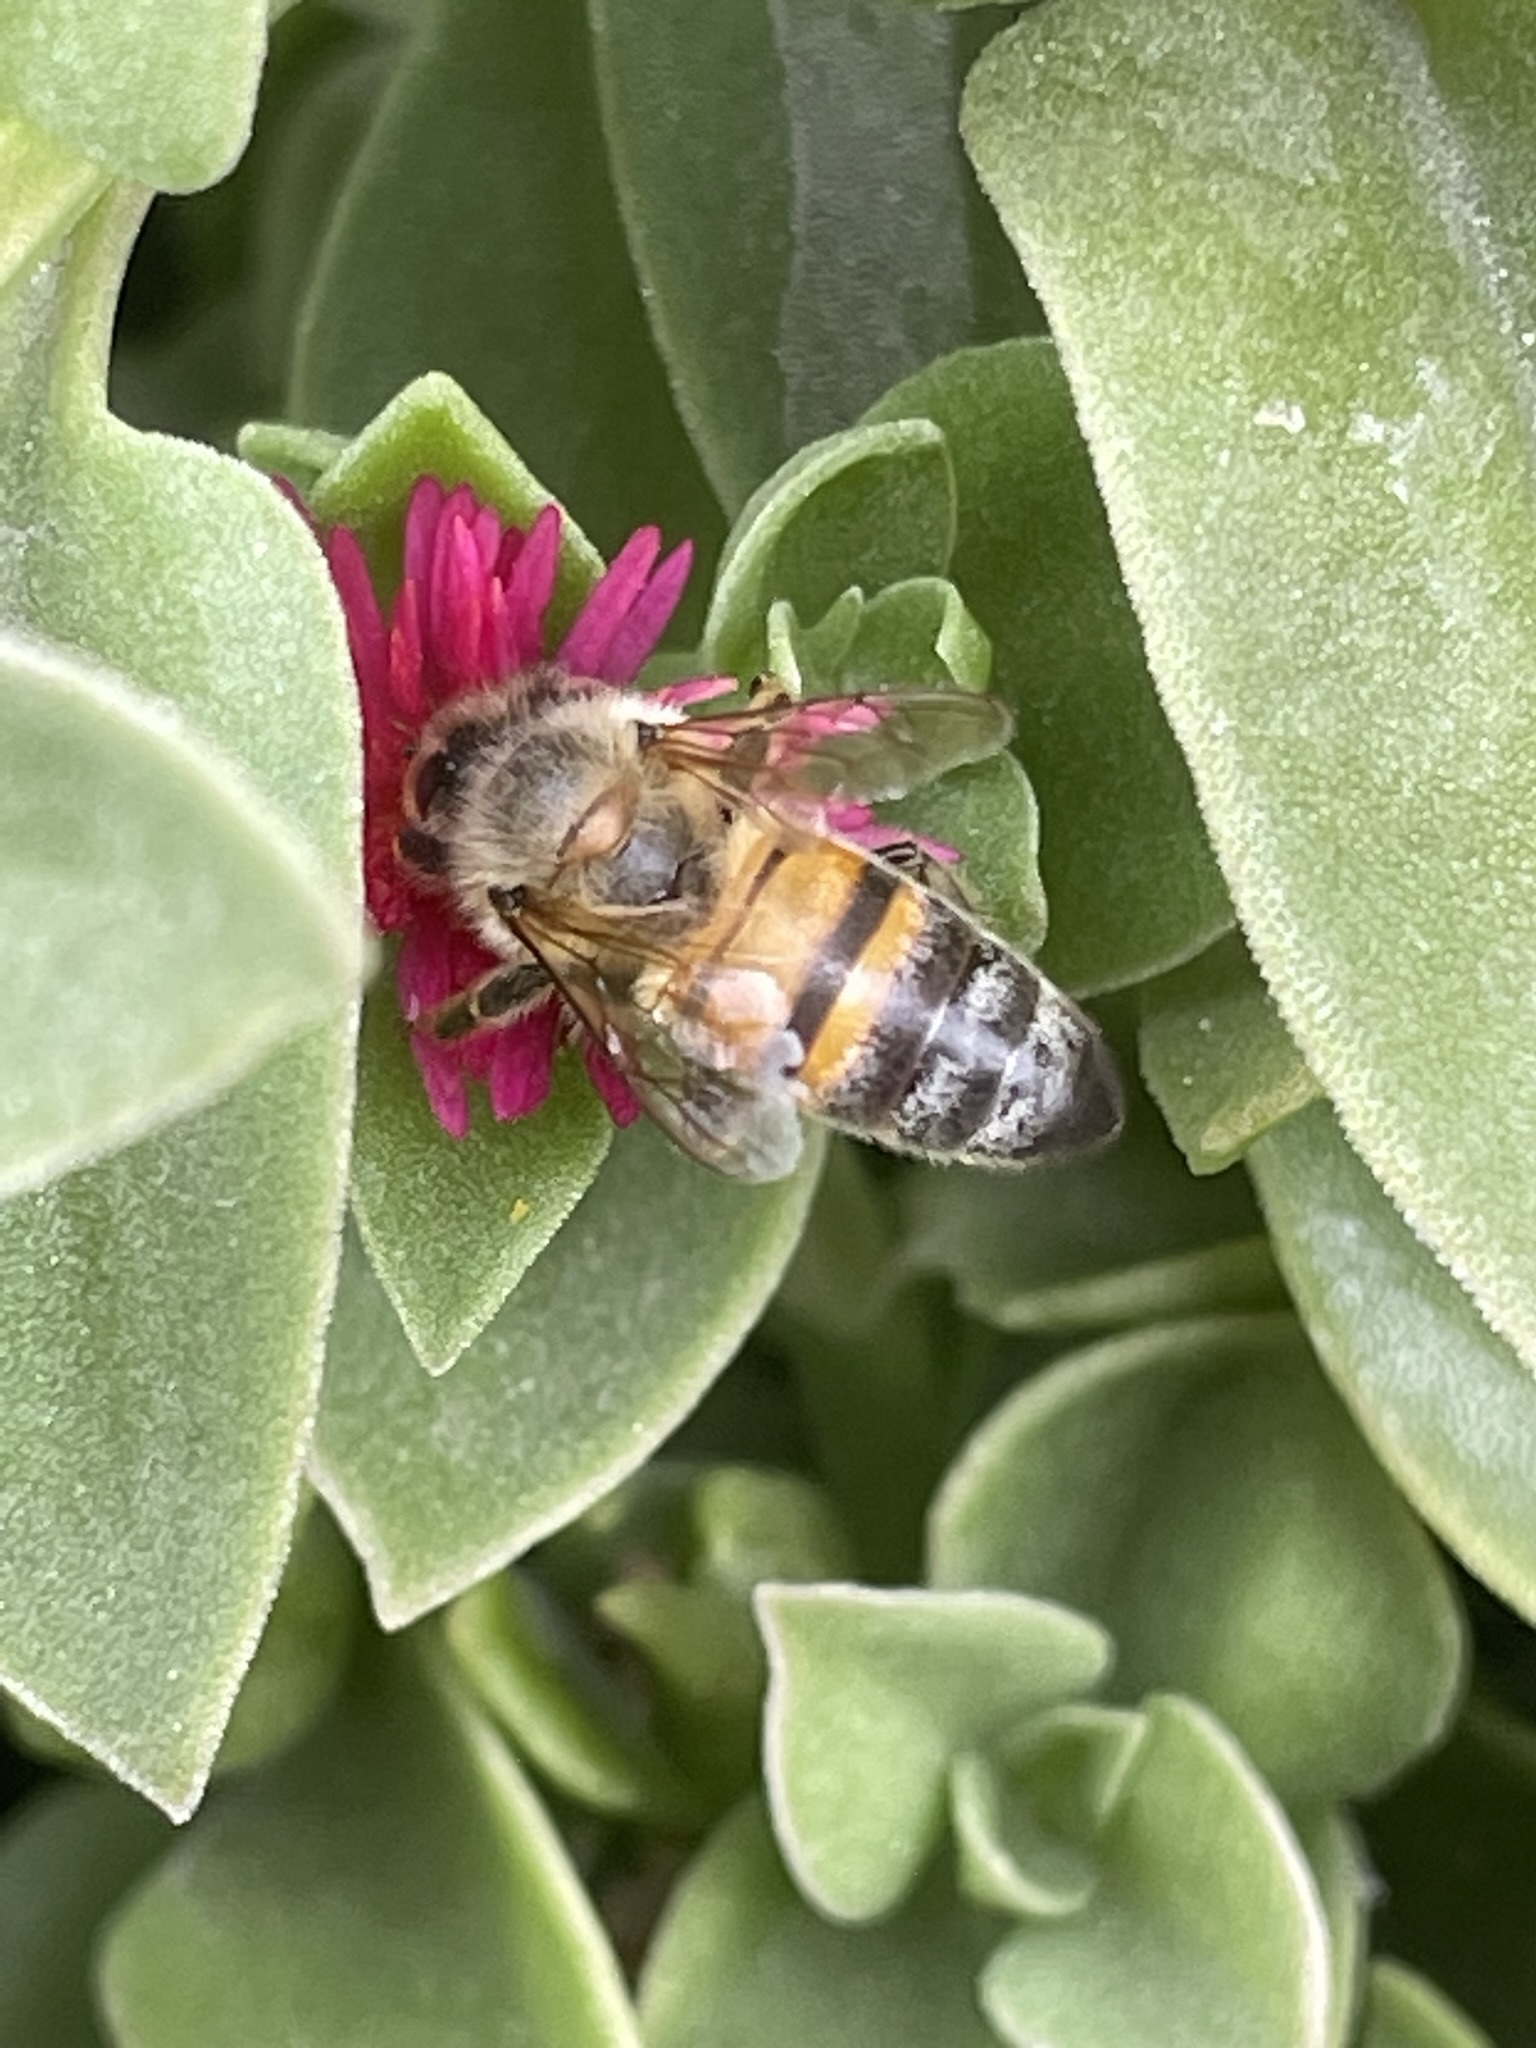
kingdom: Animalia
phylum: Arthropoda
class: Insecta
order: Hymenoptera
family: Apidae
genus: Apis
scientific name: Apis mellifera
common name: Honey bee
